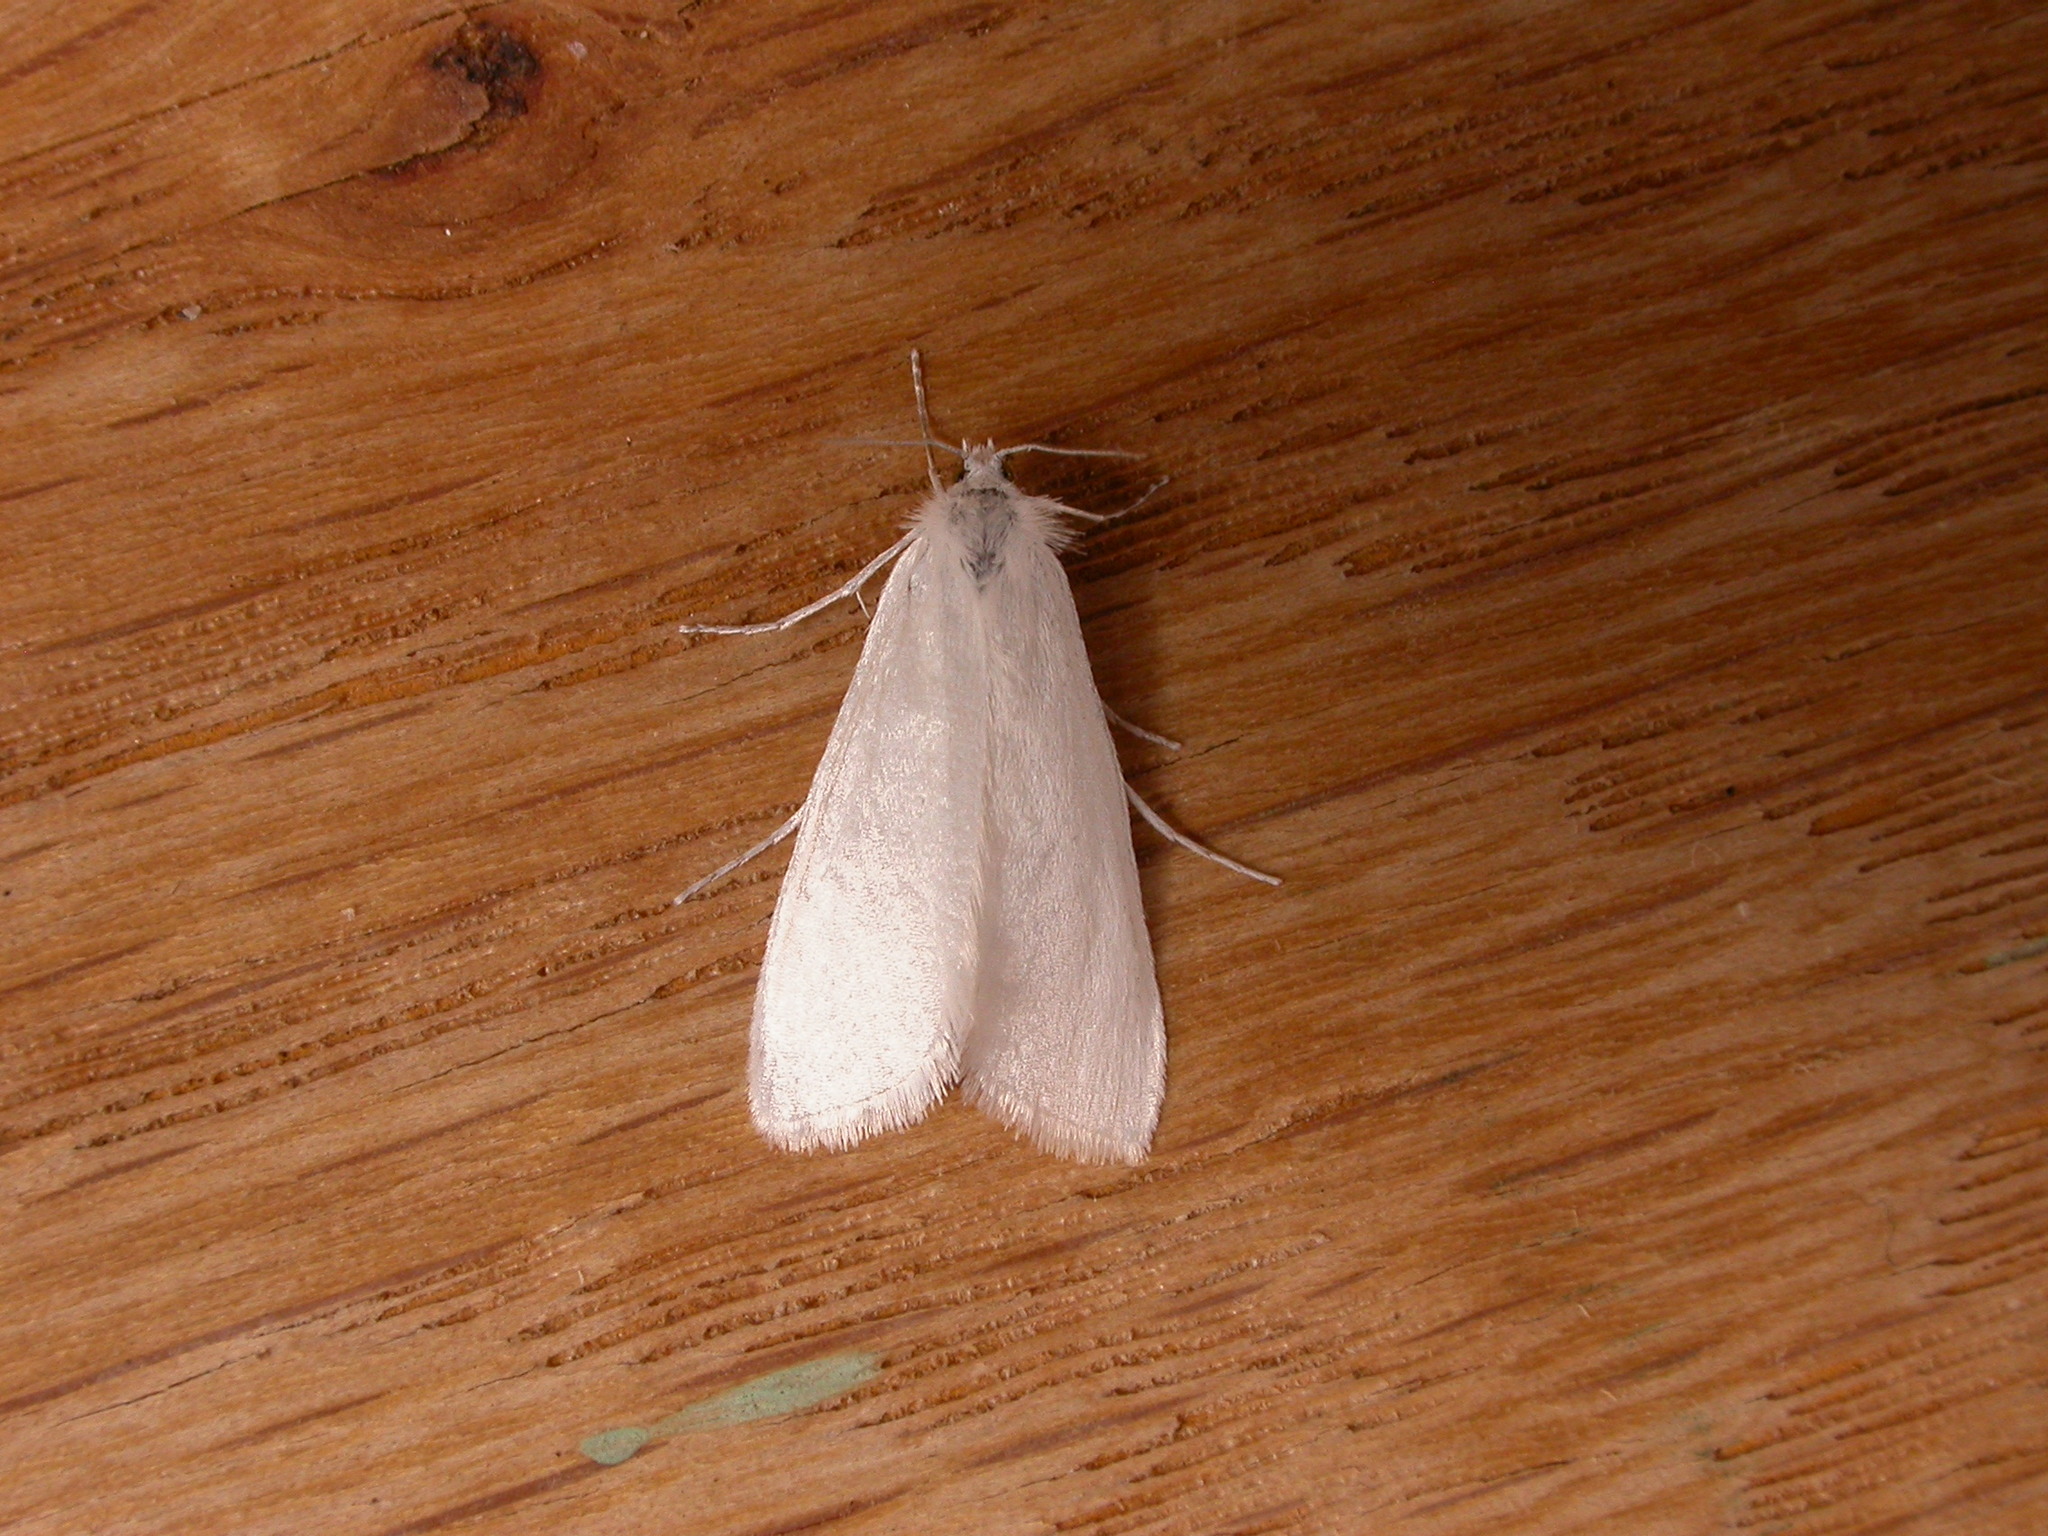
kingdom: Animalia
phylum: Arthropoda
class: Insecta
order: Lepidoptera
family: Crambidae
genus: Tipanaea
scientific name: Tipanaea patulella
